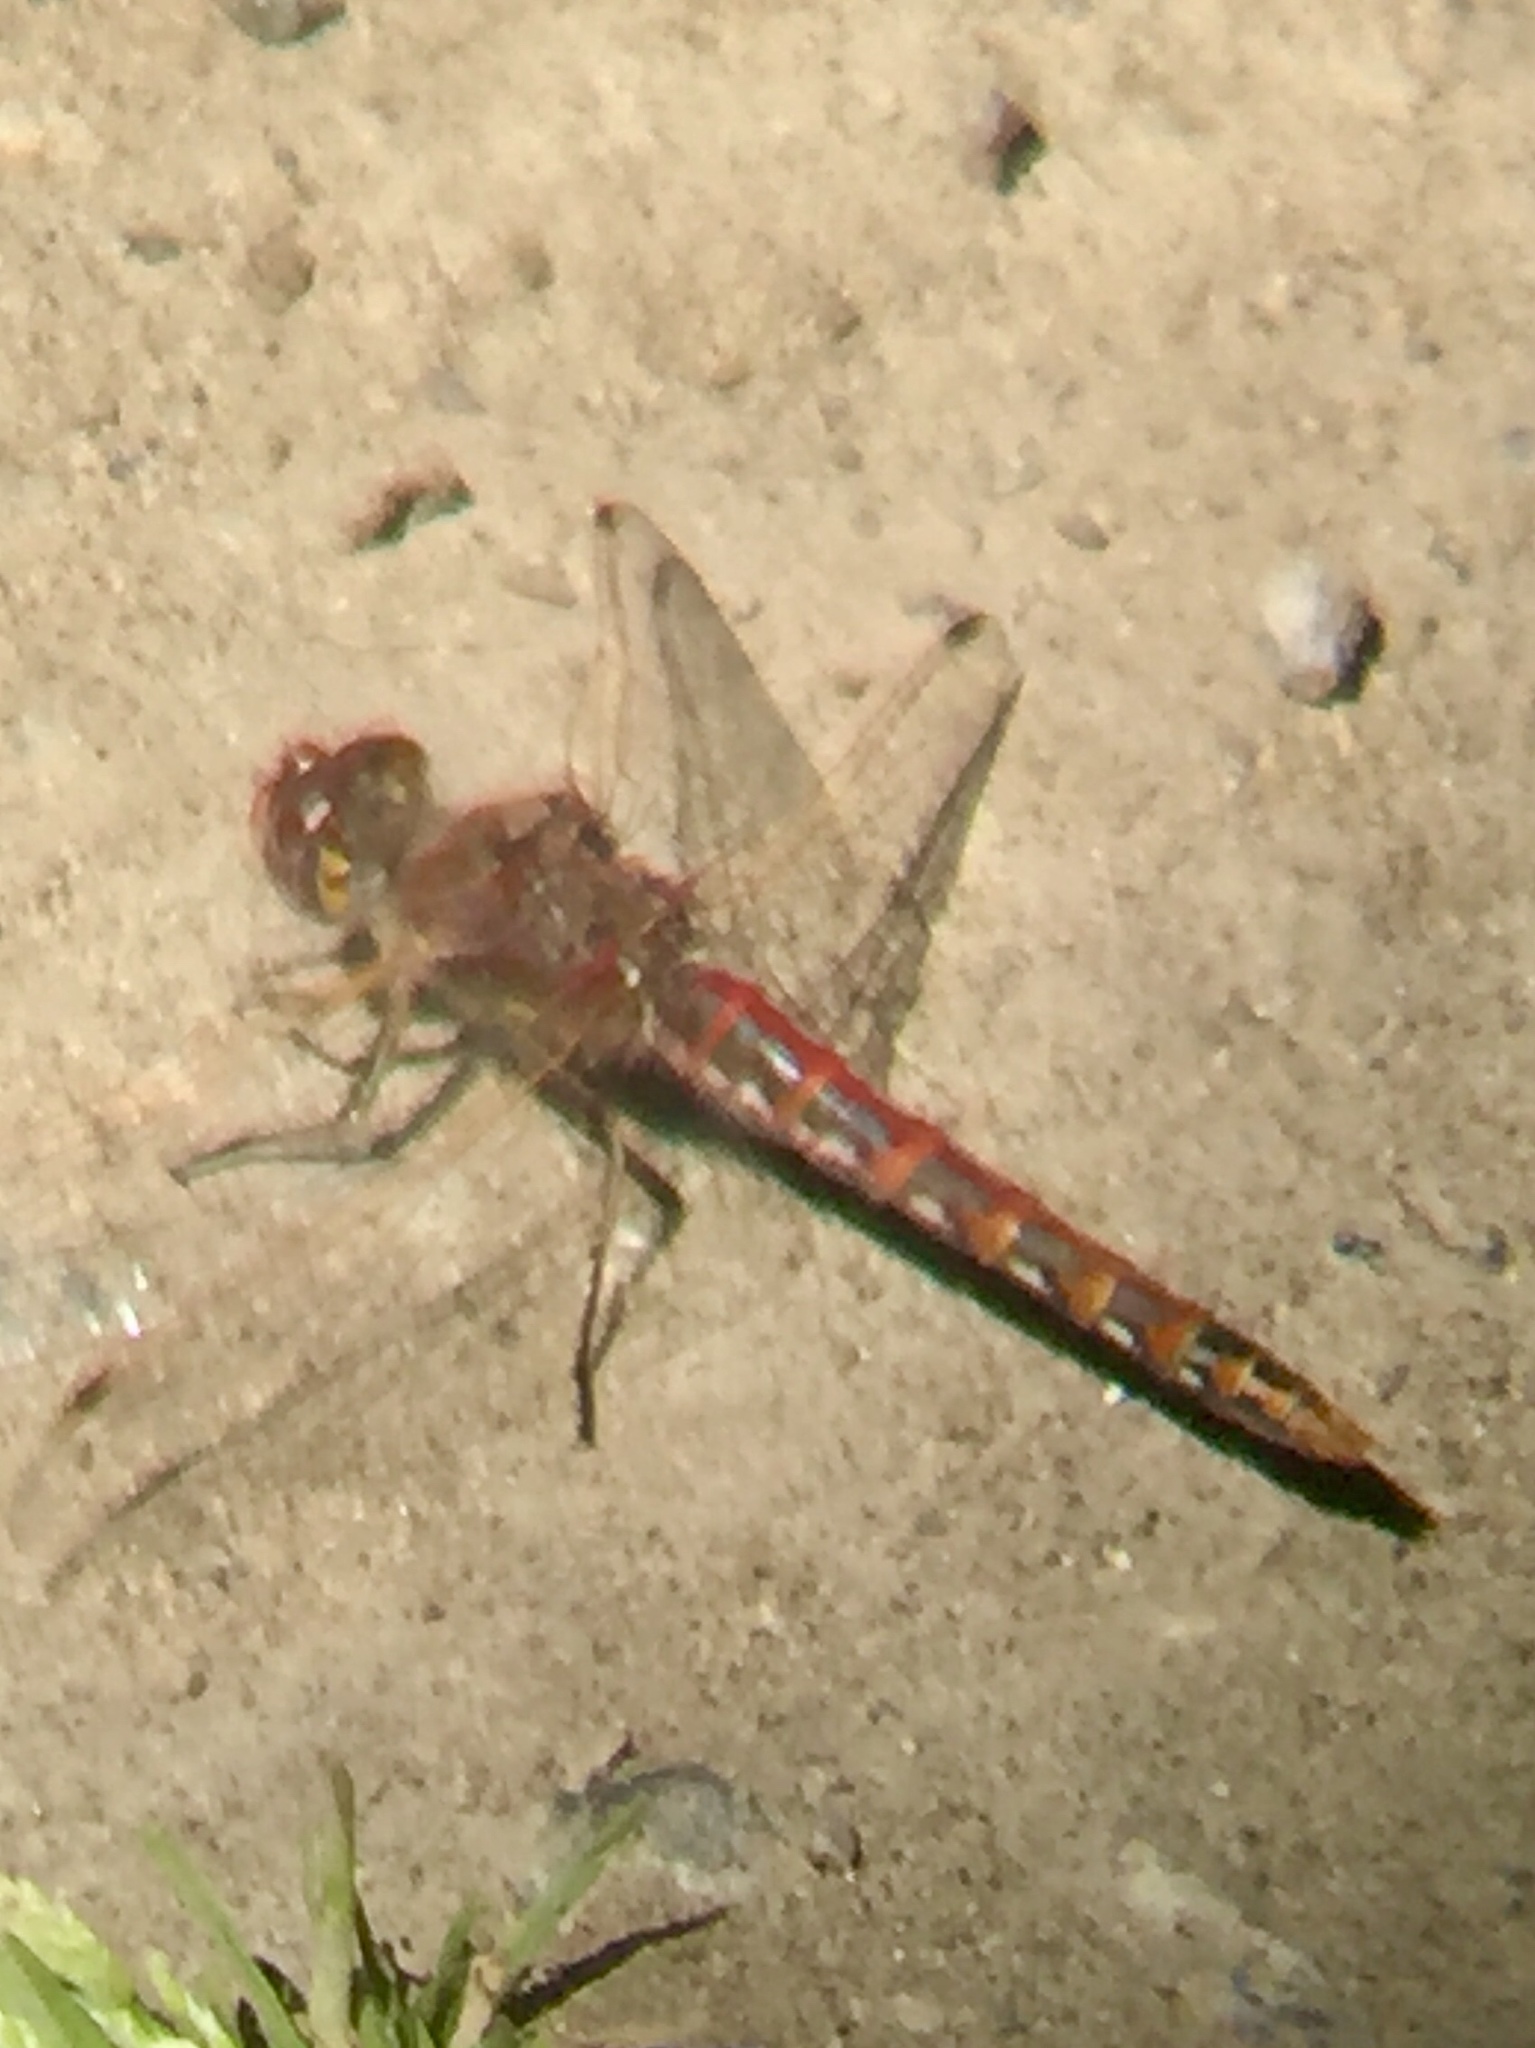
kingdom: Animalia
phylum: Arthropoda
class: Insecta
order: Odonata
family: Libellulidae
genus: Sympetrum
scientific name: Sympetrum corruptum
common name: Variegated meadowhawk
